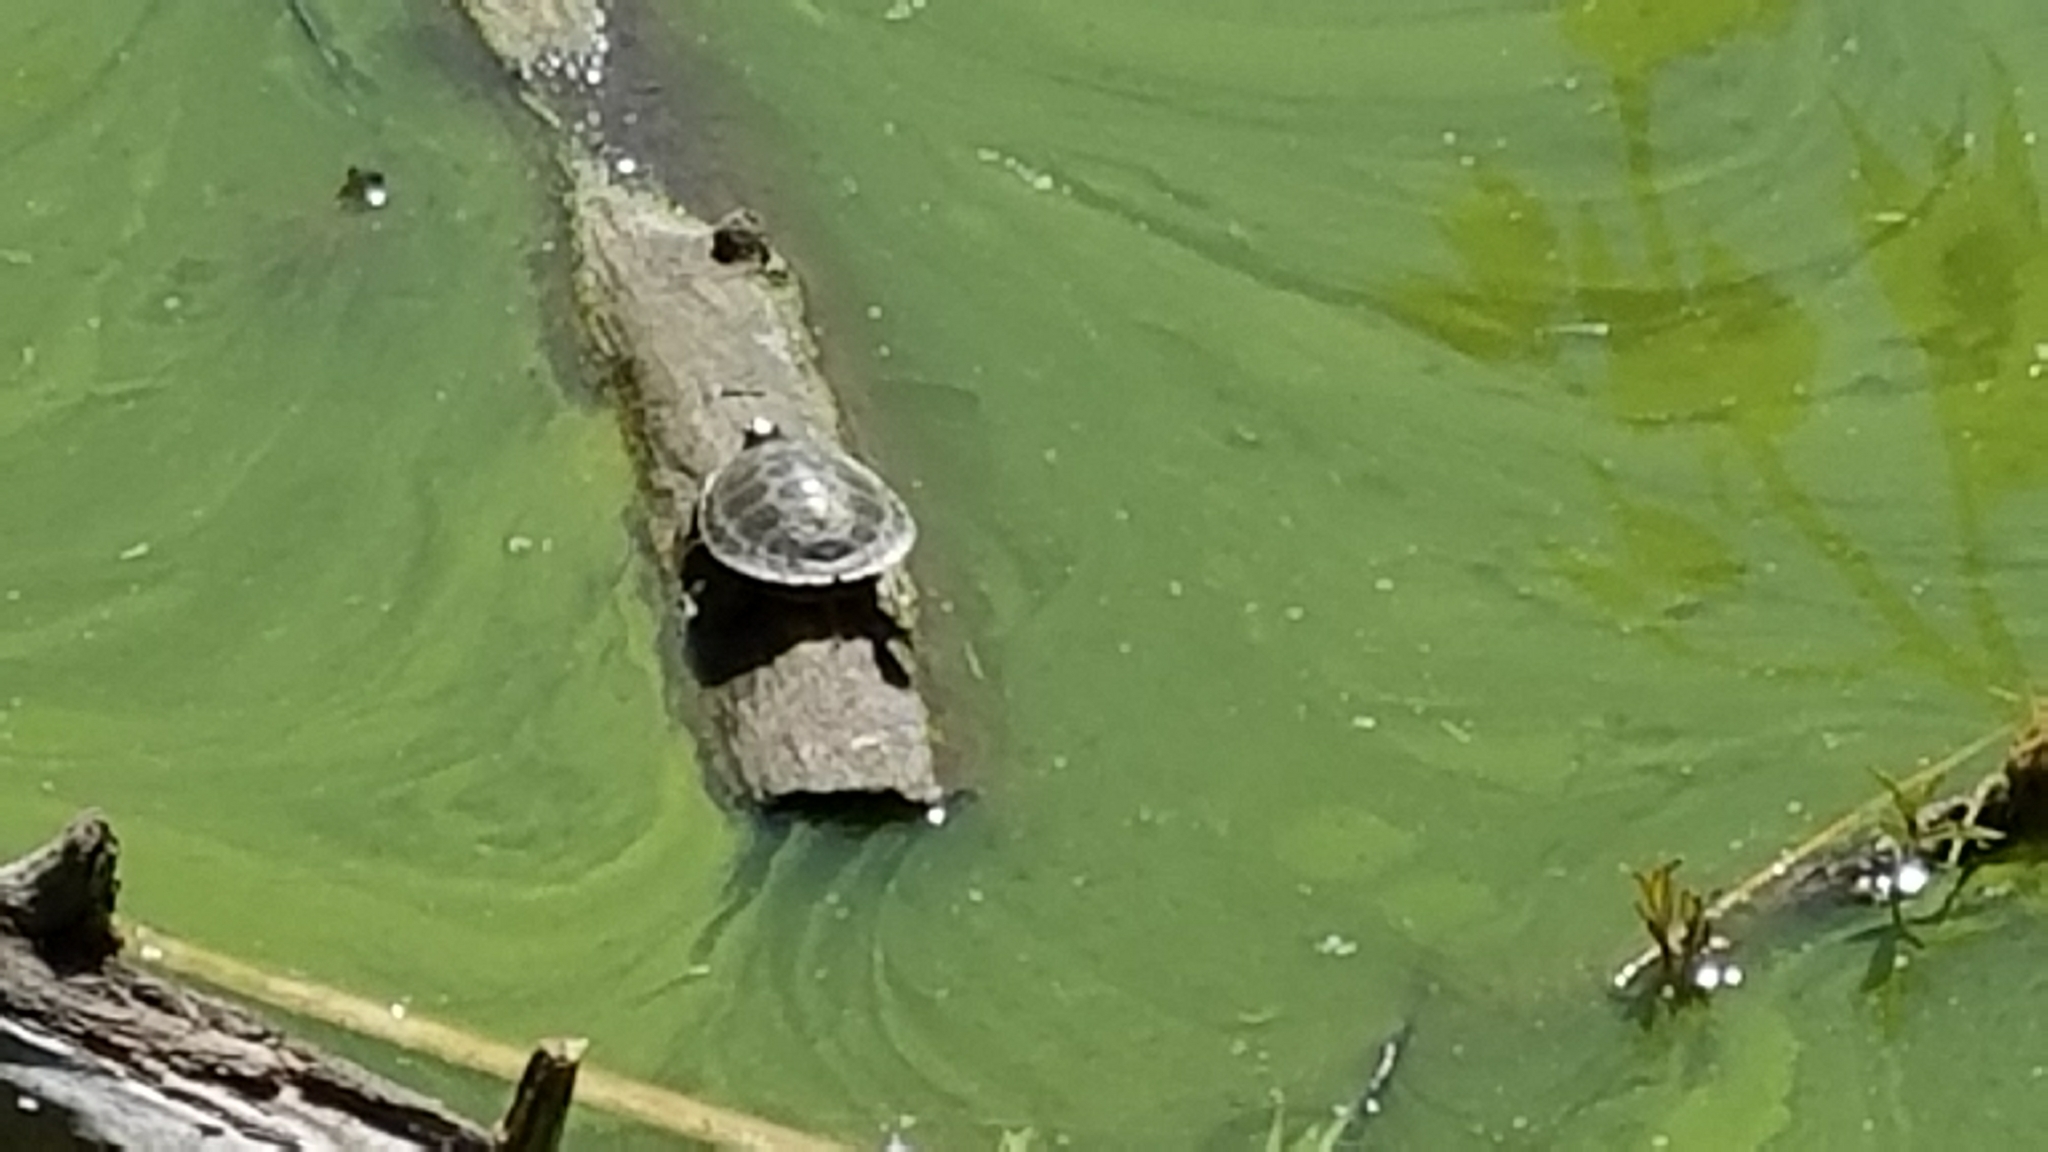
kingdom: Animalia
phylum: Chordata
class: Testudines
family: Emydidae
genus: Chrysemys
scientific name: Chrysemys picta
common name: Painted turtle
